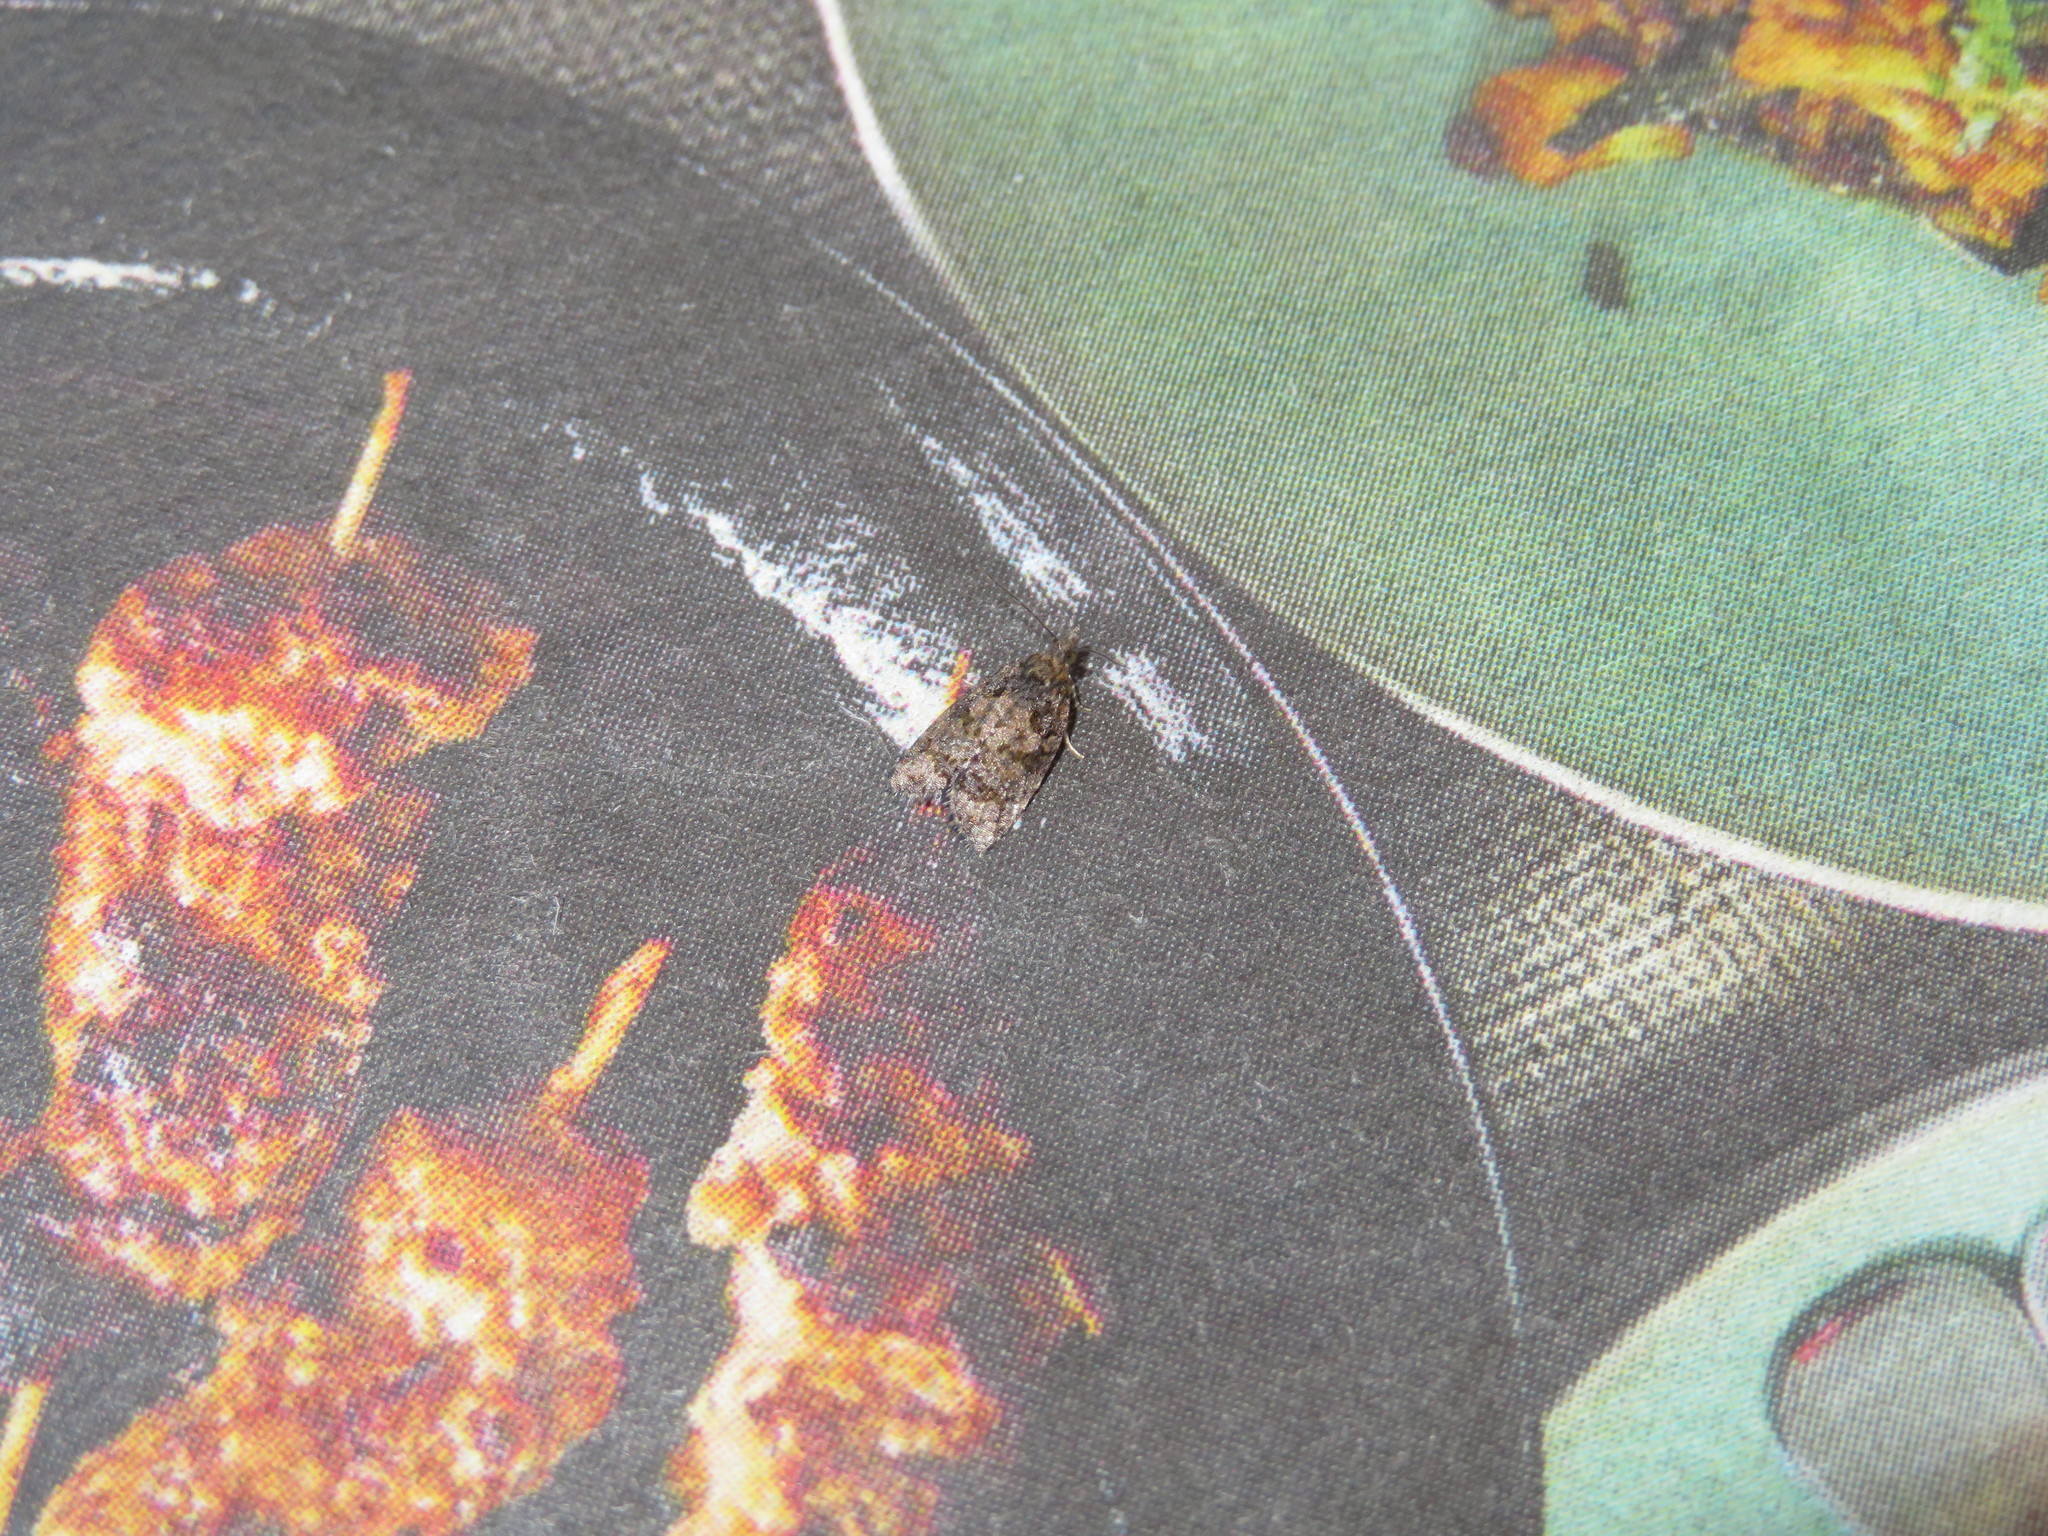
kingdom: Animalia
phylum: Arthropoda
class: Insecta
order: Lepidoptera
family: Tortricidae
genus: Capua
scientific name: Capua intractana
